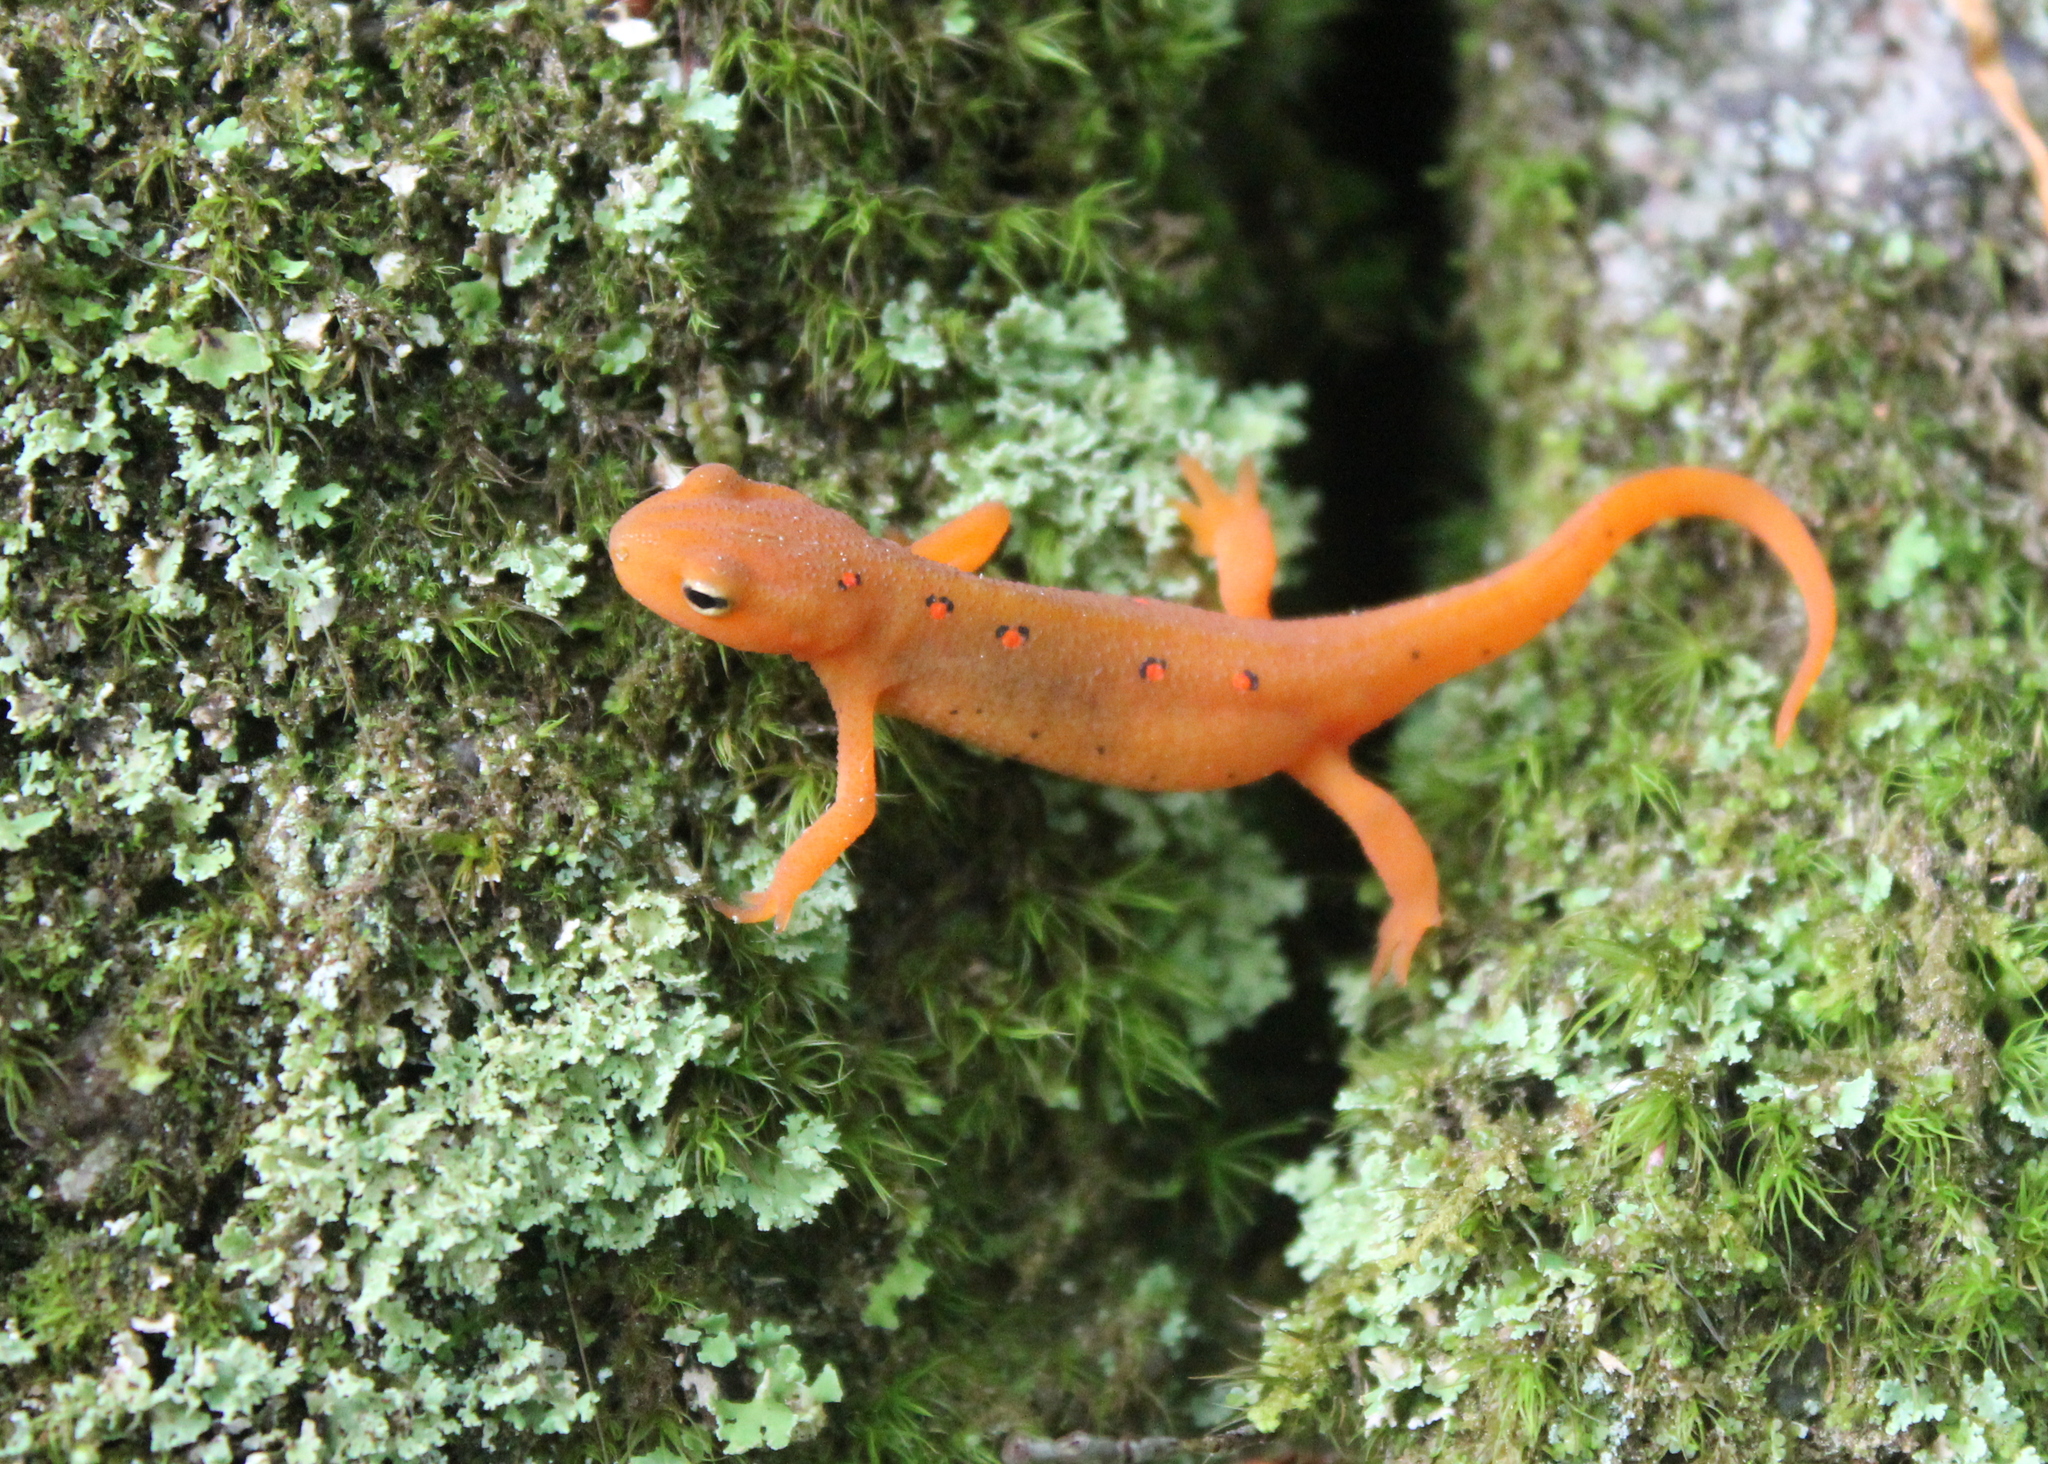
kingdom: Animalia
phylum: Chordata
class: Amphibia
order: Caudata
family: Salamandridae
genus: Notophthalmus
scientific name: Notophthalmus viridescens
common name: Eastern newt
